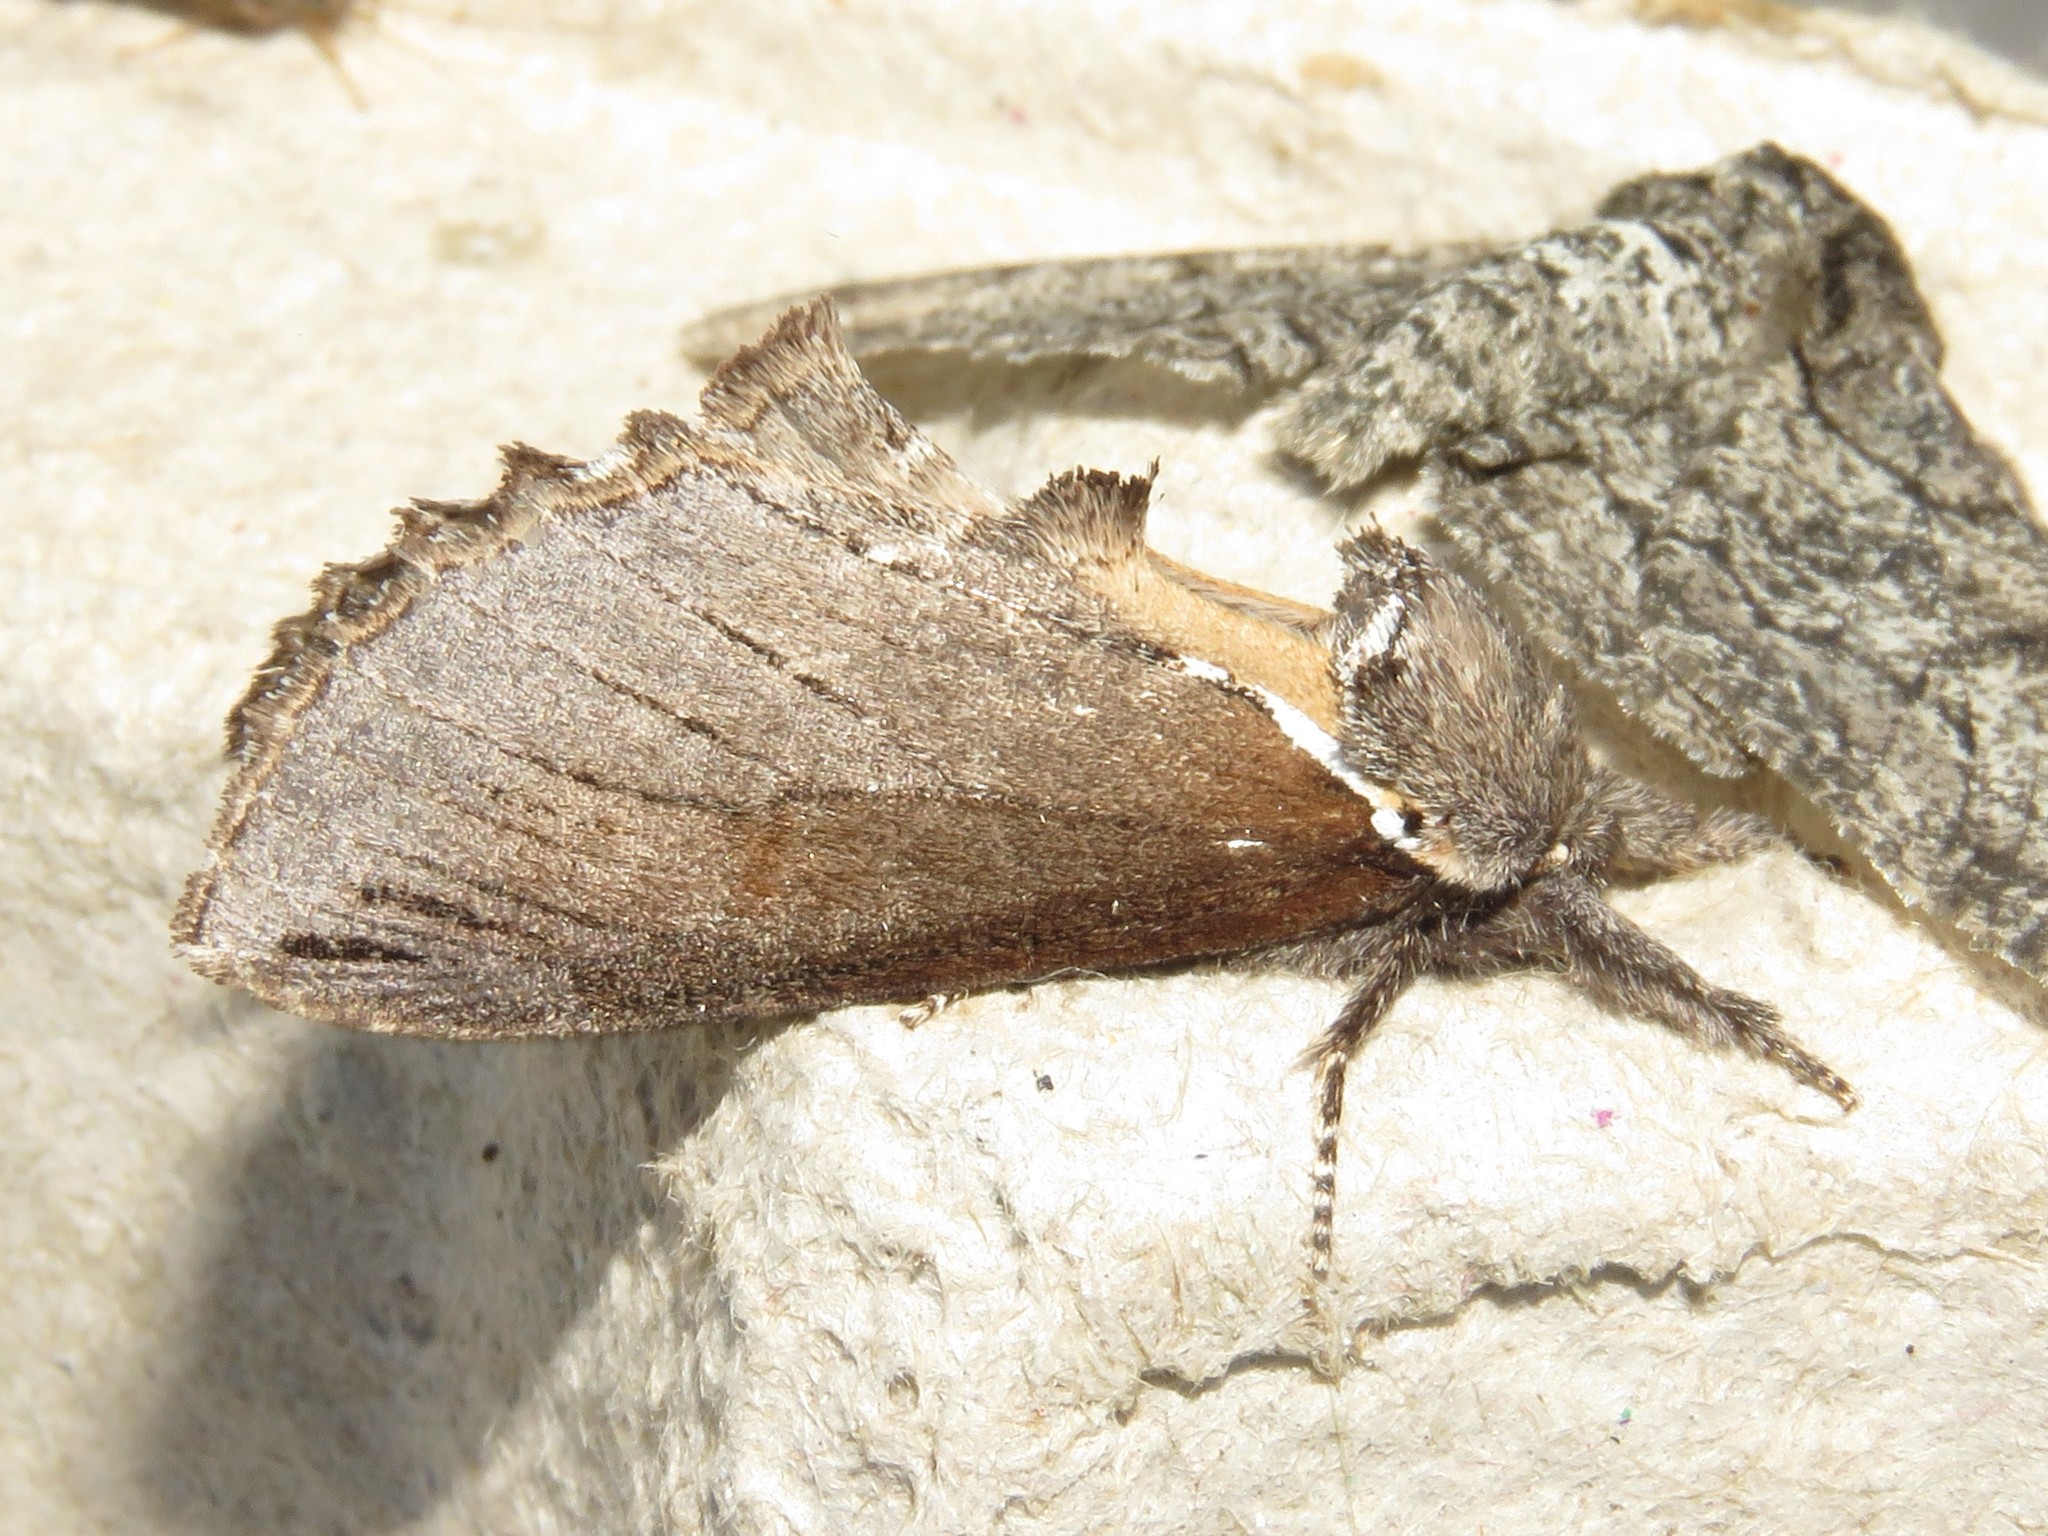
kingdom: Animalia
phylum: Arthropoda
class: Insecta
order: Lepidoptera
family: Notodontidae
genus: Pheosidea
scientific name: Pheosidea elegans
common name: Elegant prominent
